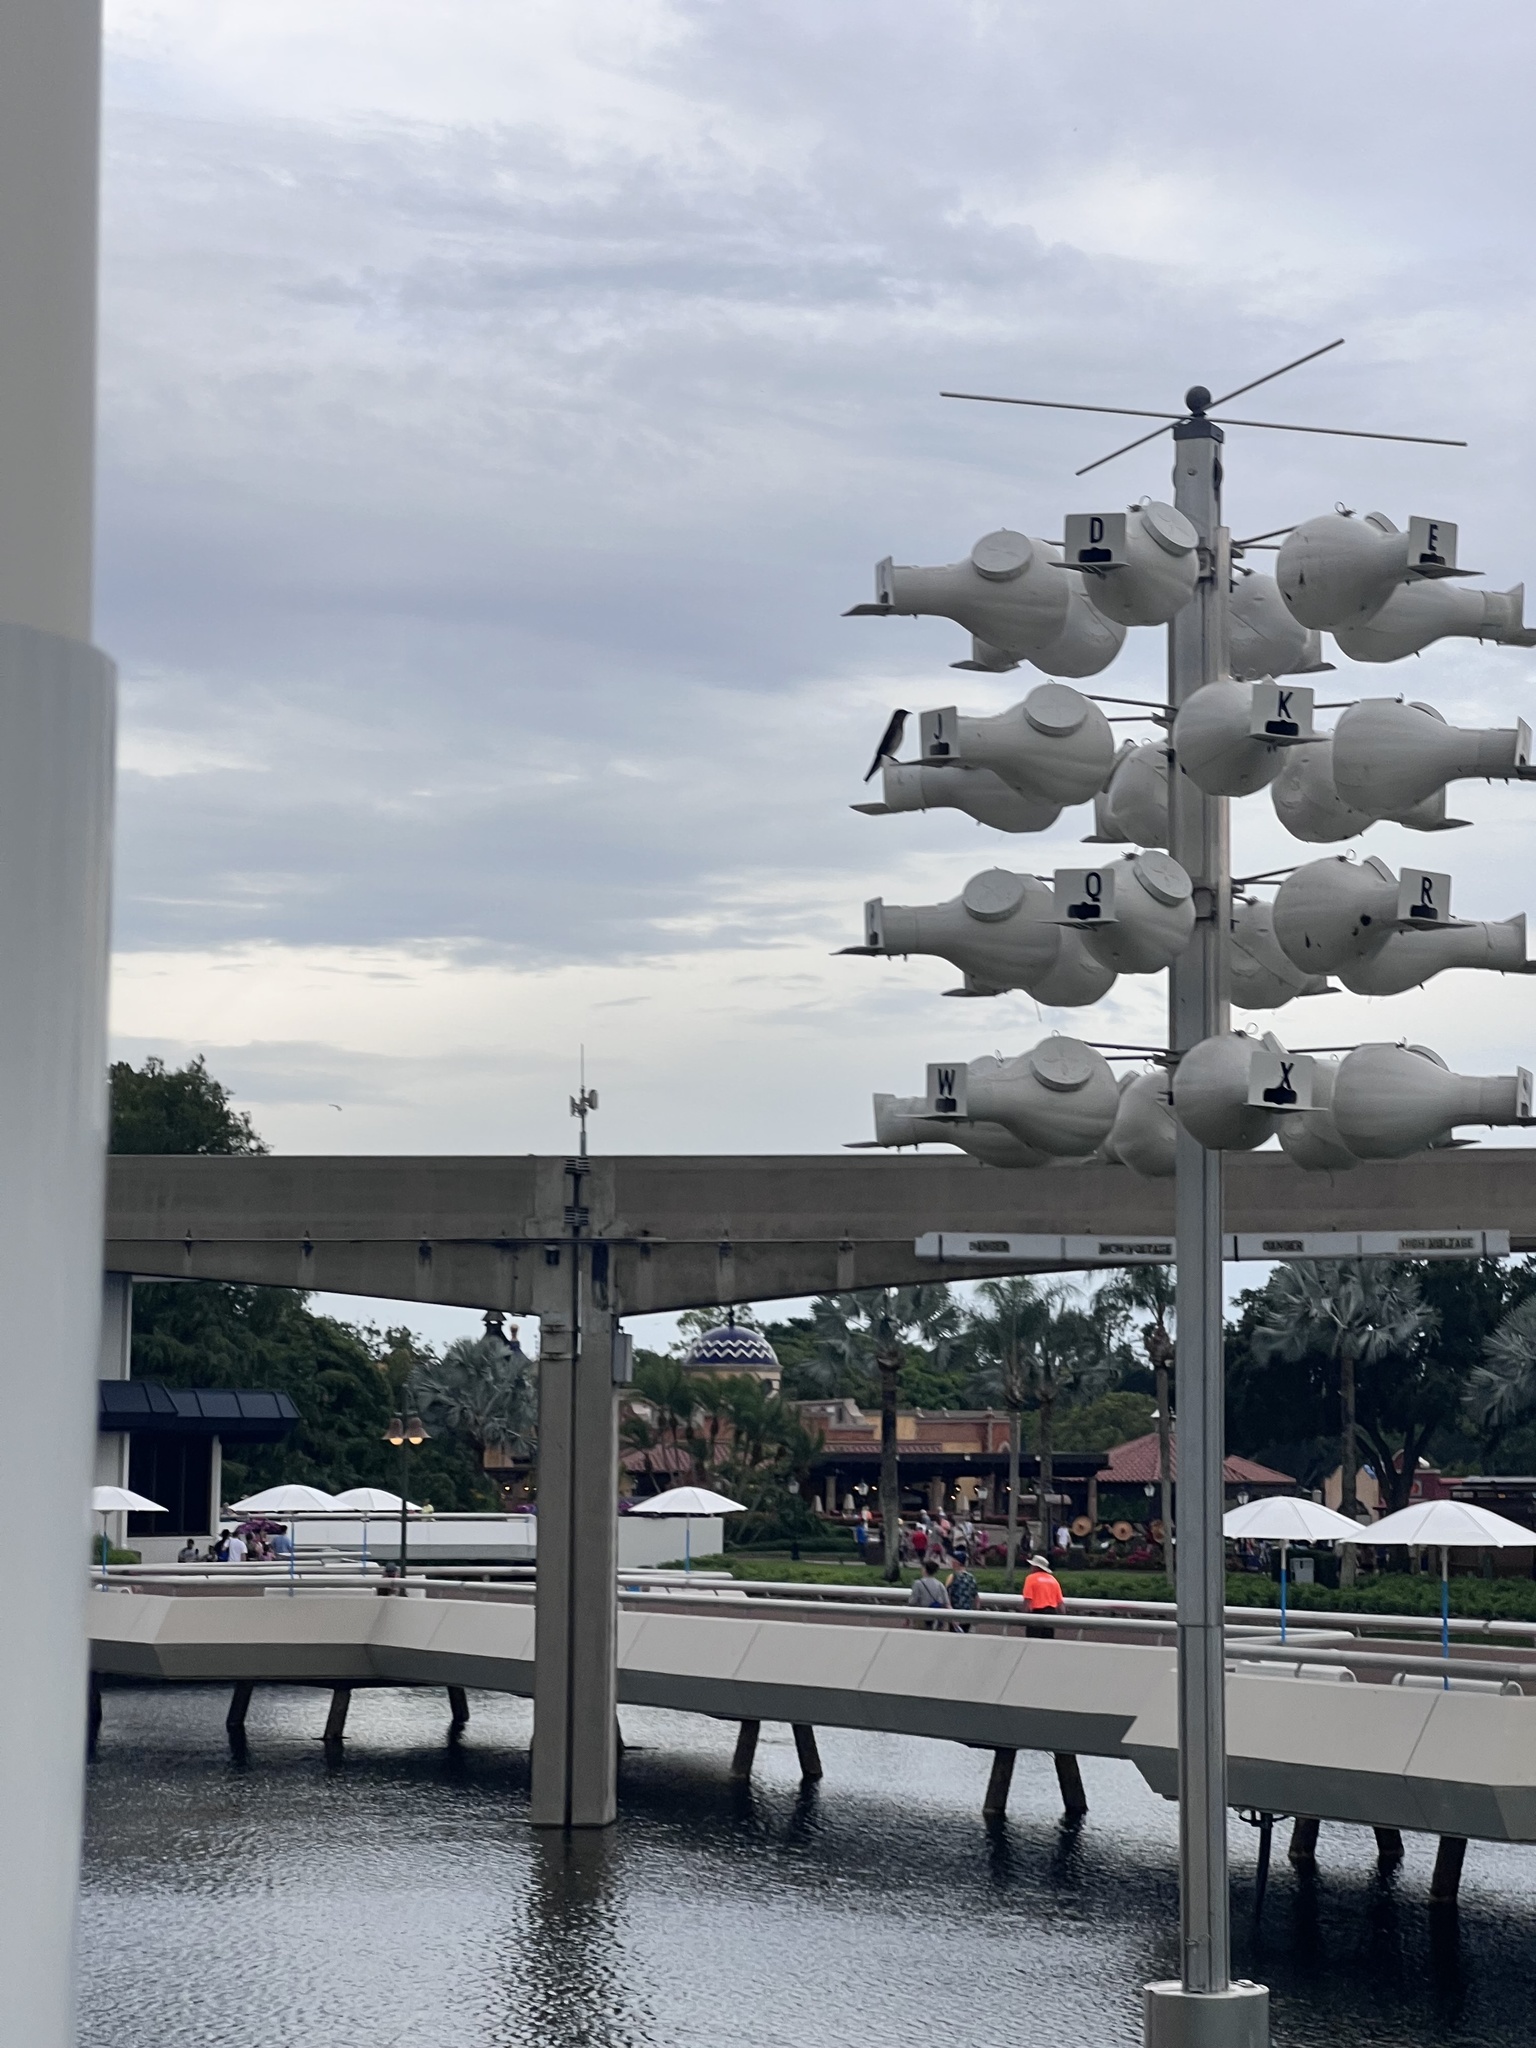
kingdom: Animalia
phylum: Chordata
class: Aves
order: Passeriformes
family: Hirundinidae
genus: Progne
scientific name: Progne subis
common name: Purple martin
